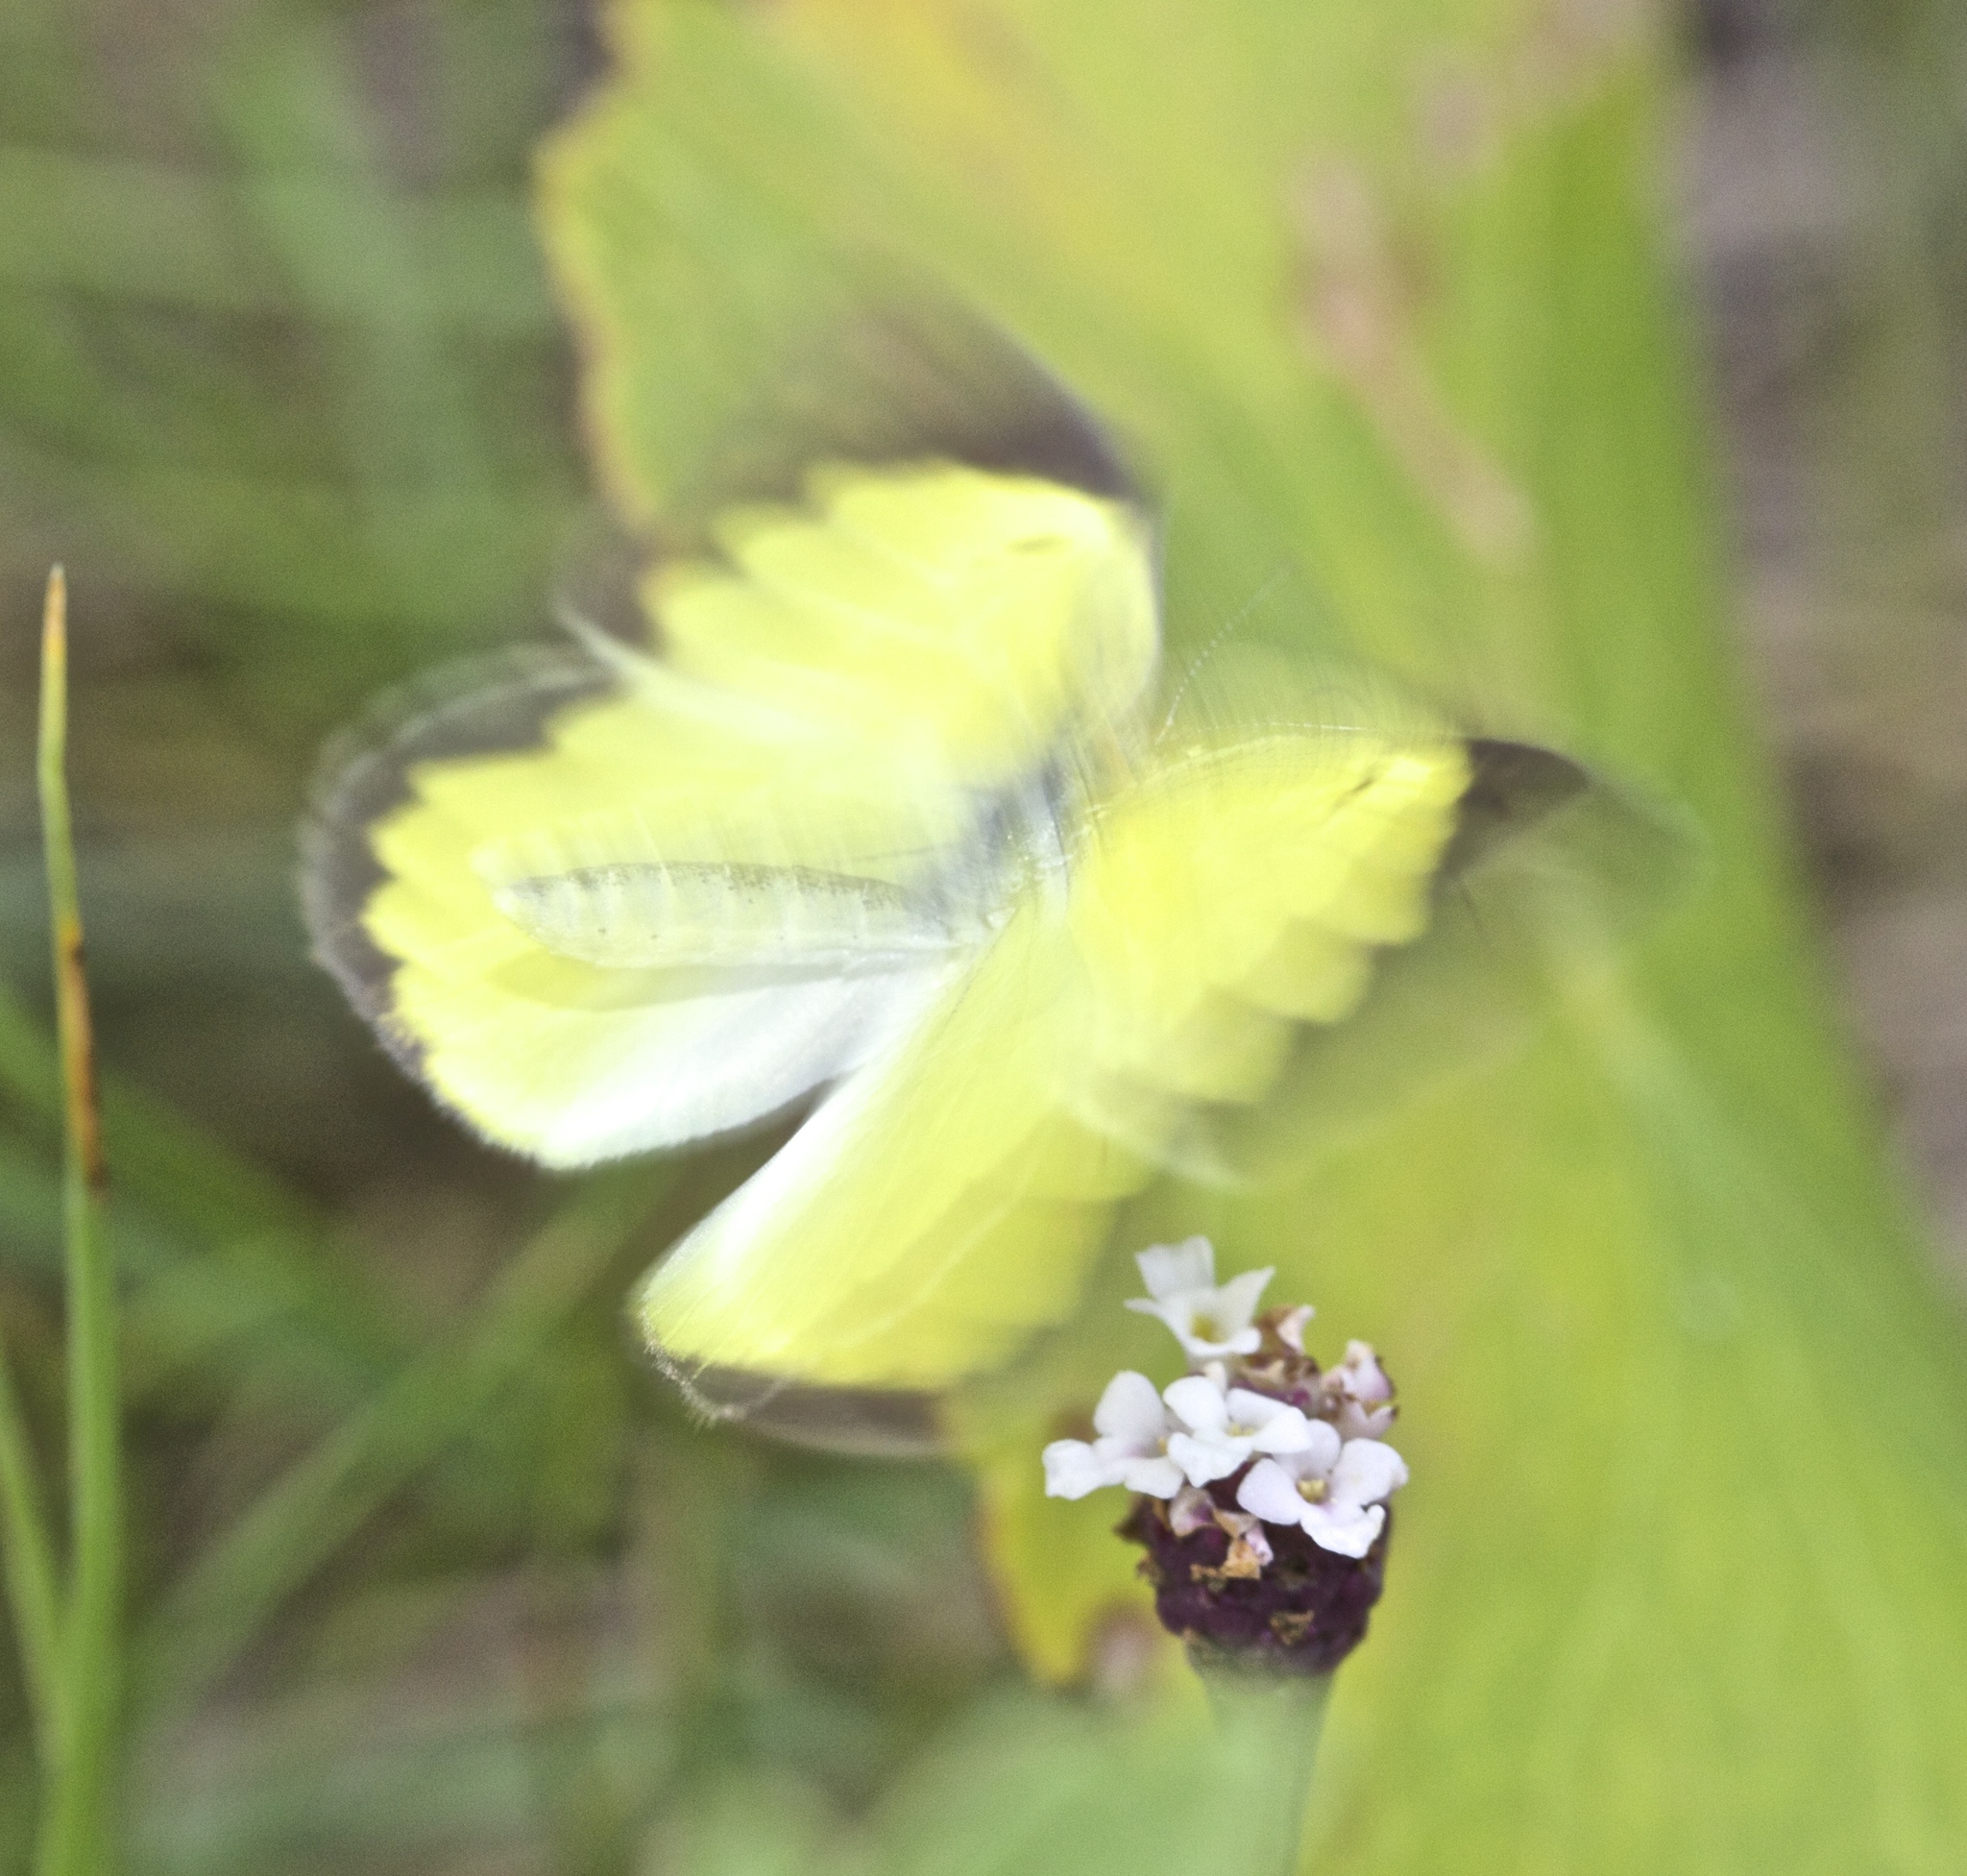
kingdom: Animalia
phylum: Arthropoda
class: Insecta
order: Lepidoptera
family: Pieridae
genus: Pyrisitia
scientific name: Pyrisitia lisa
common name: Little yellow
